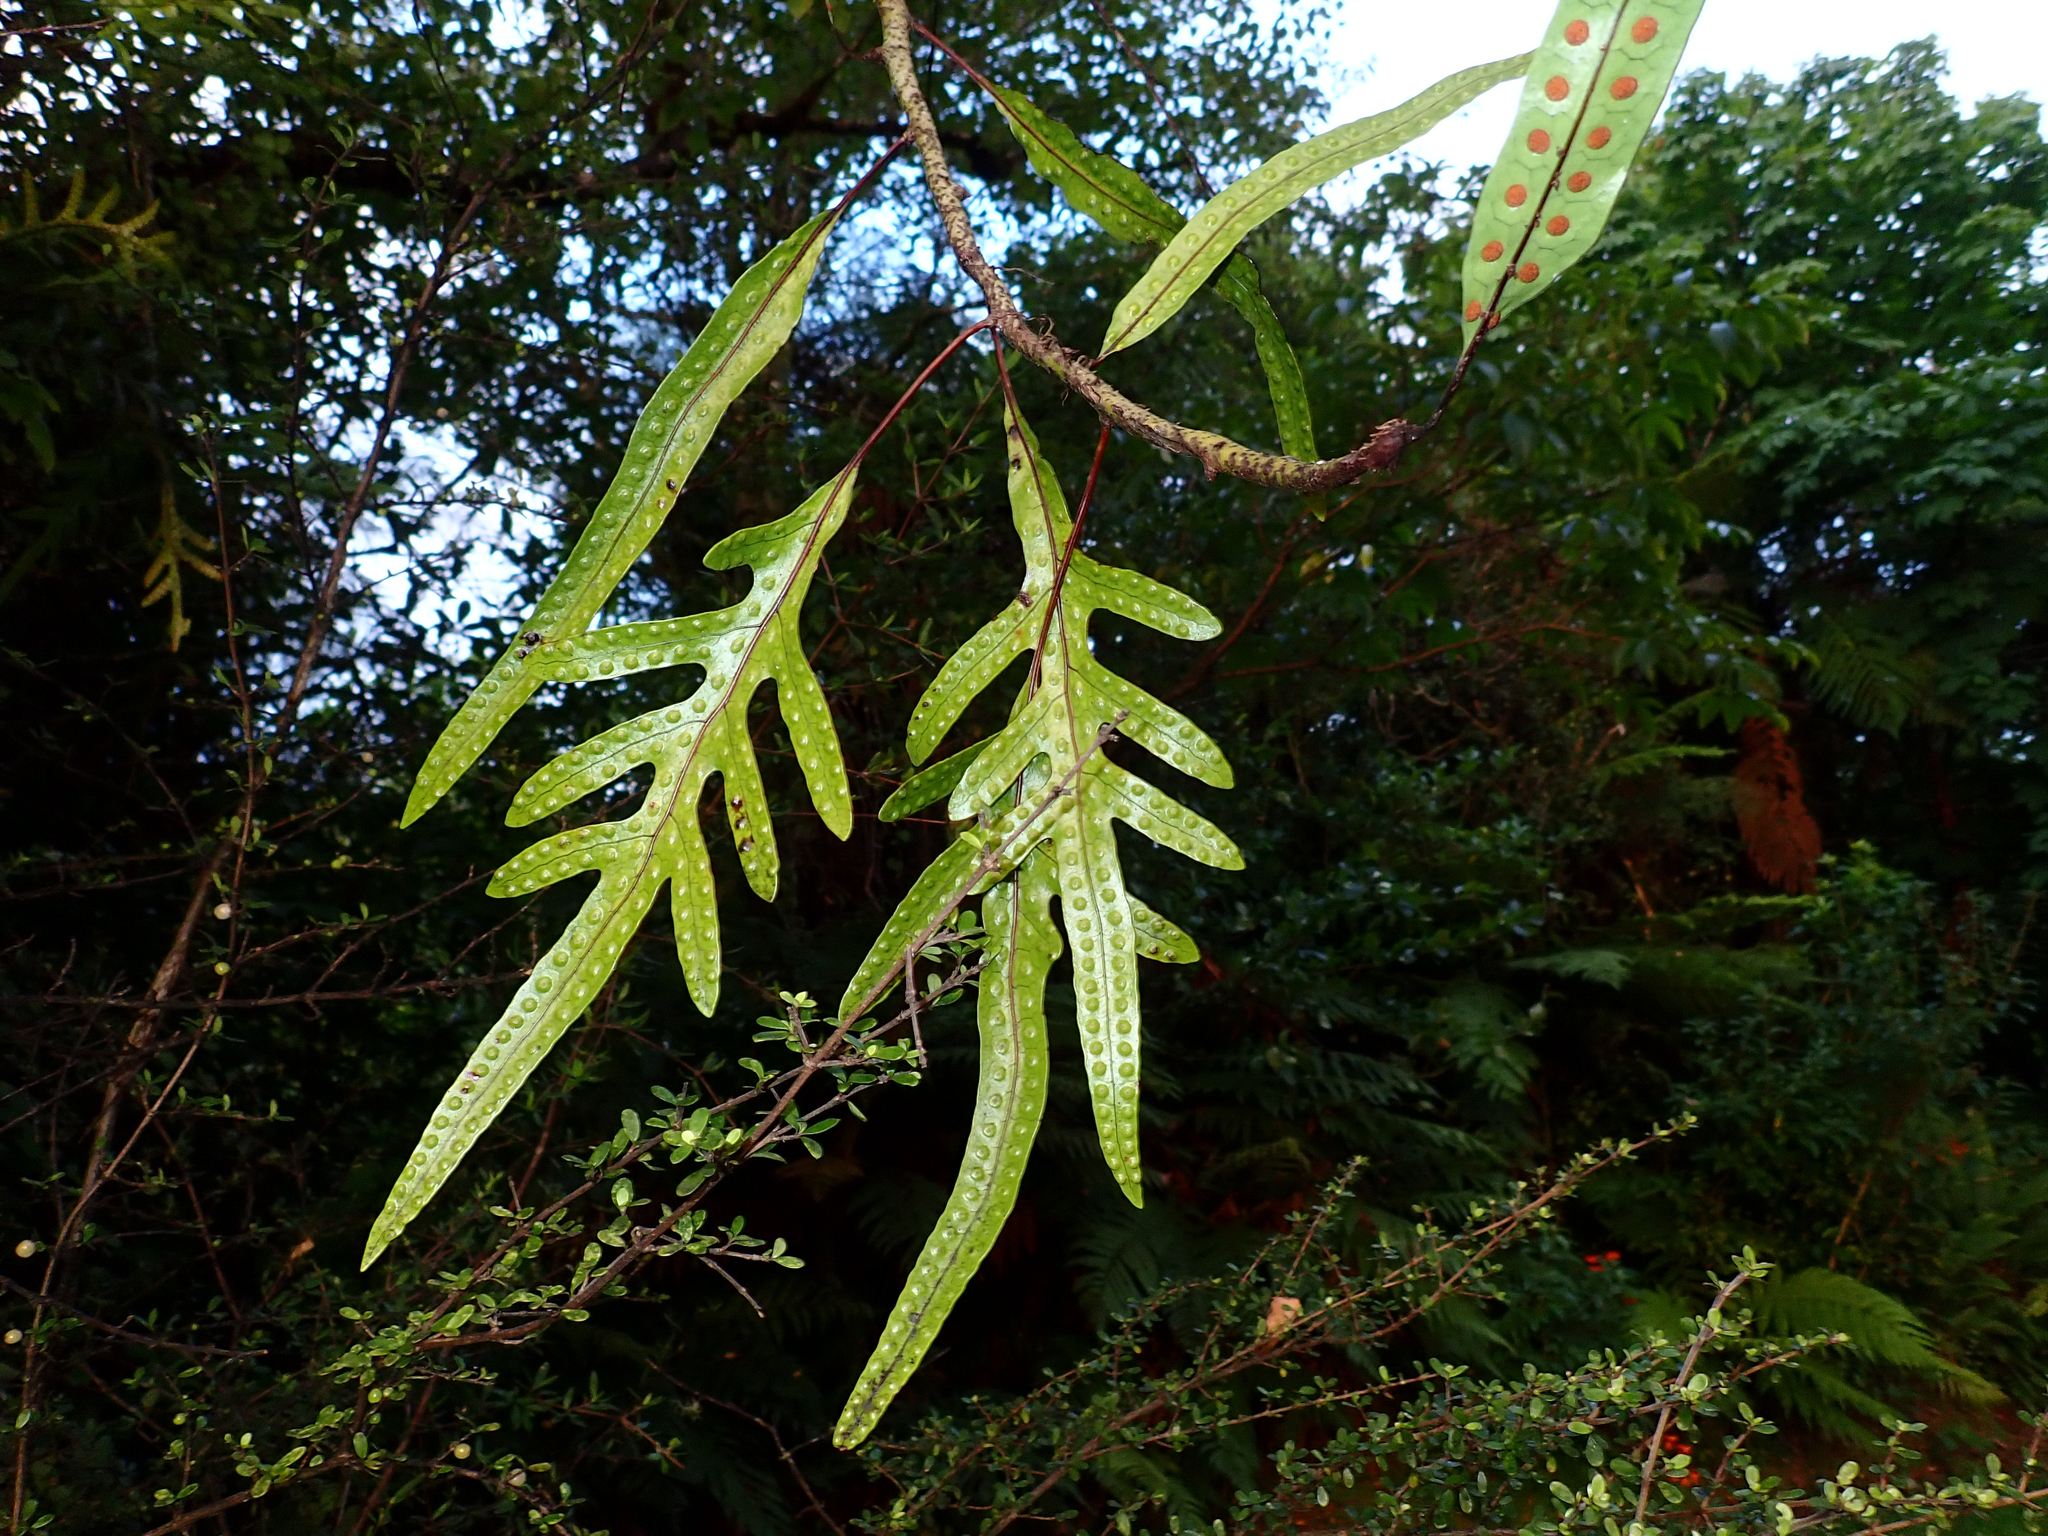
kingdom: Plantae
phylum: Tracheophyta
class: Polypodiopsida
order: Polypodiales
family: Polypodiaceae
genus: Lecanopteris
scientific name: Lecanopteris pustulata
